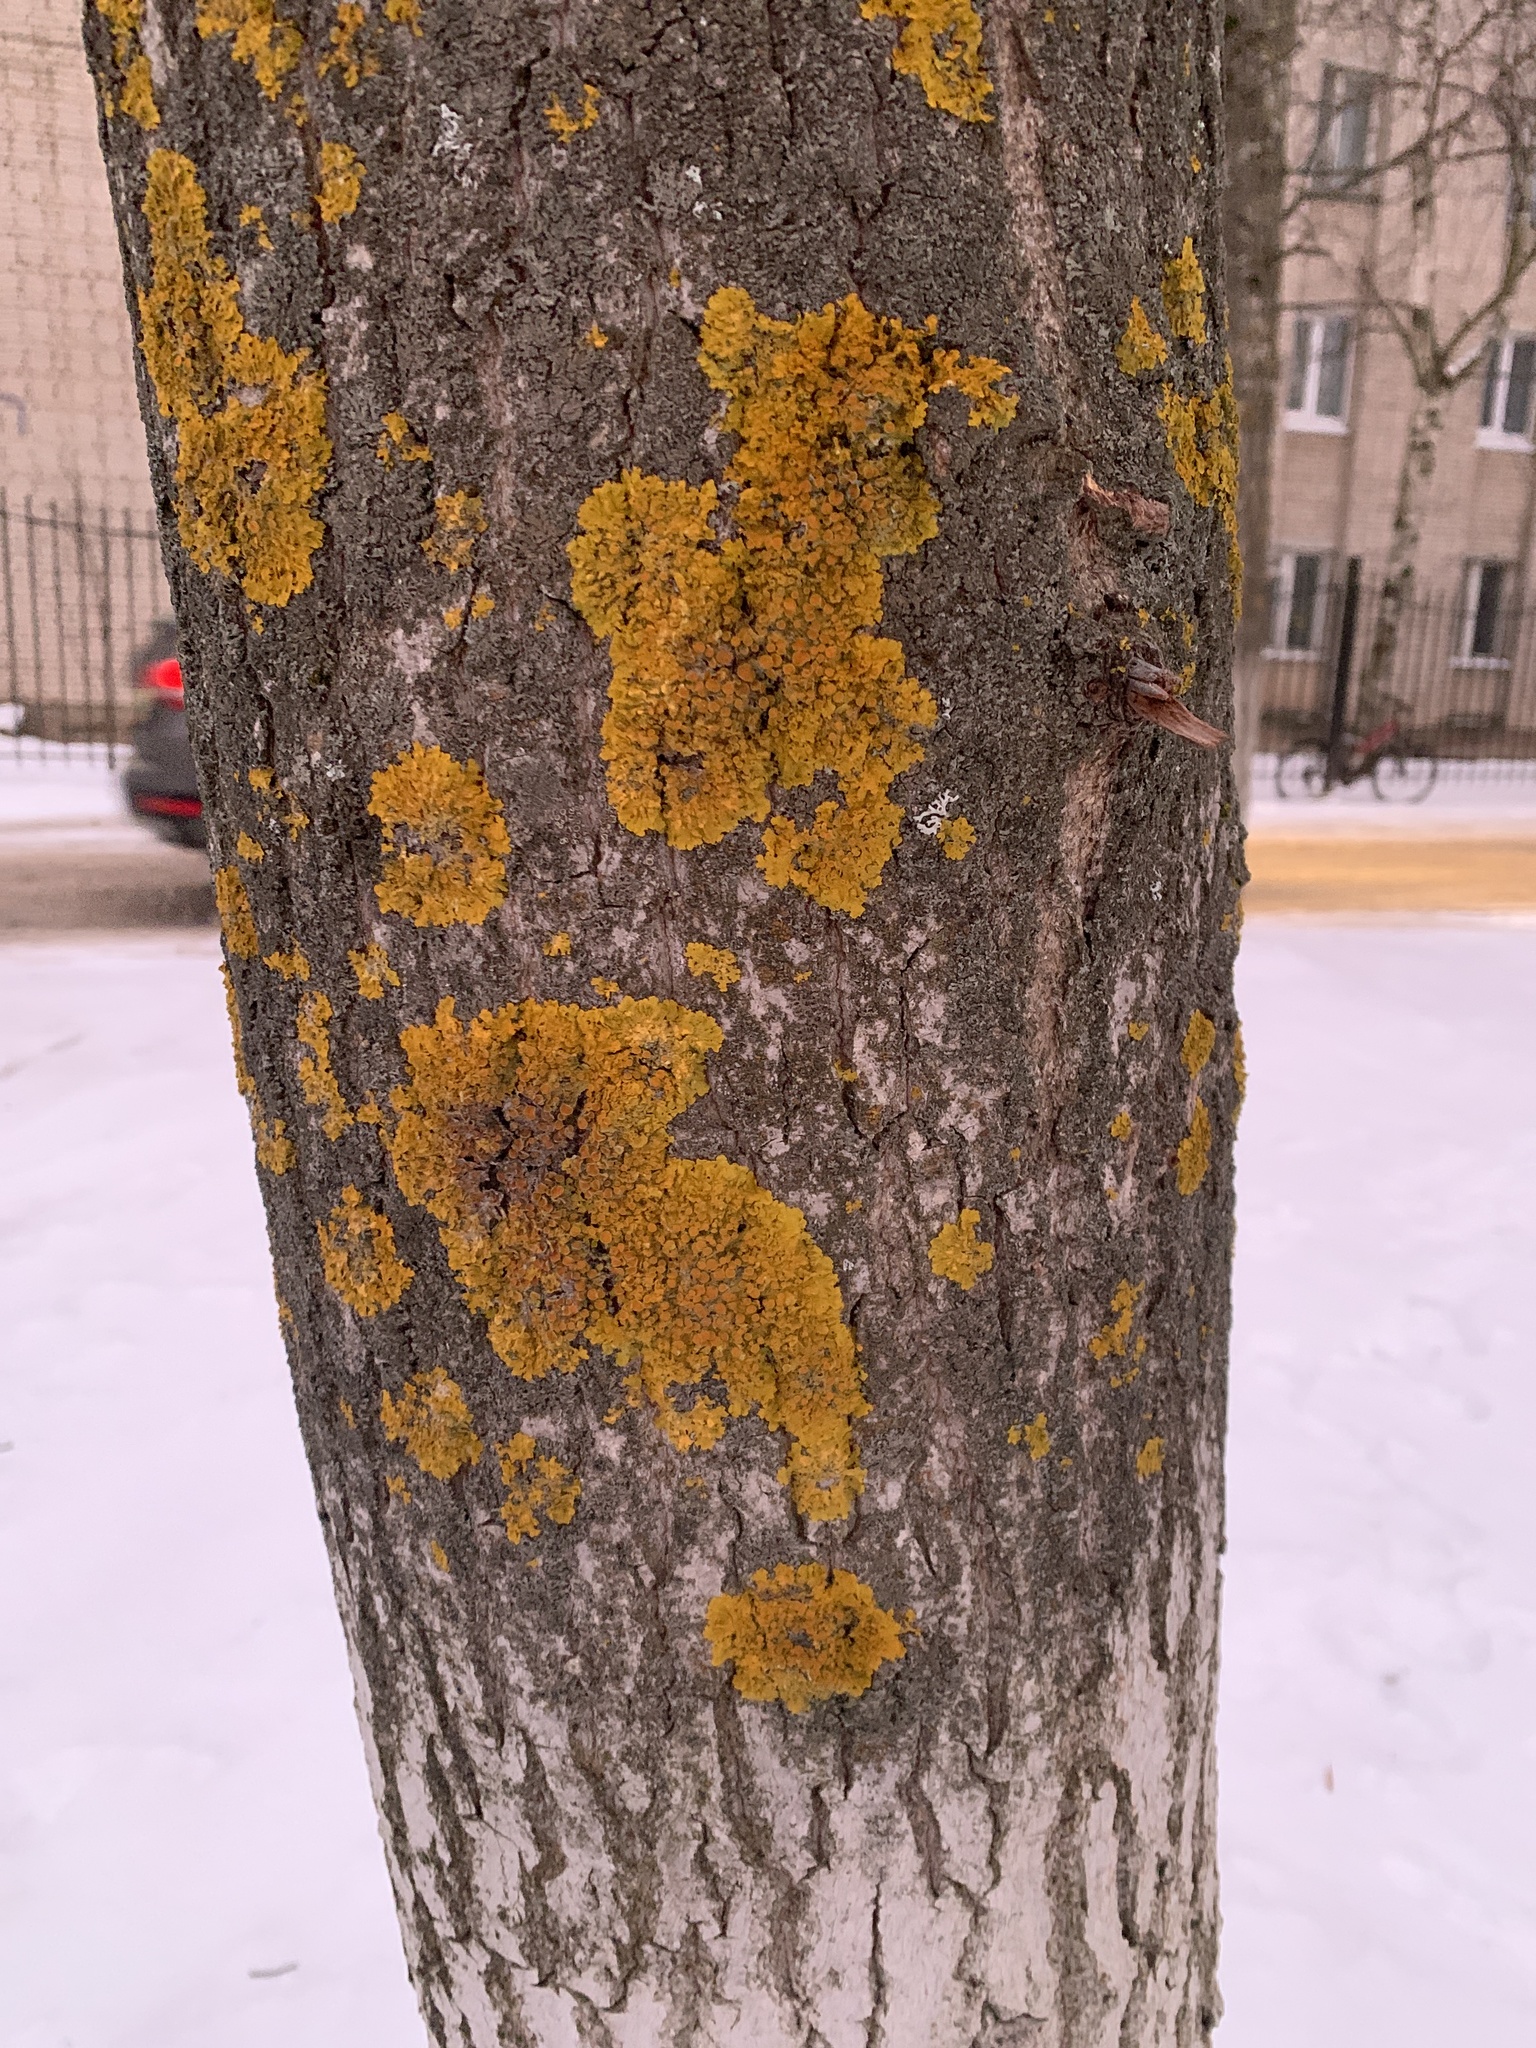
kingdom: Fungi
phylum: Ascomycota
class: Lecanoromycetes
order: Teloschistales
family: Teloschistaceae
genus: Xanthoria
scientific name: Xanthoria parietina
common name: Common orange lichen
